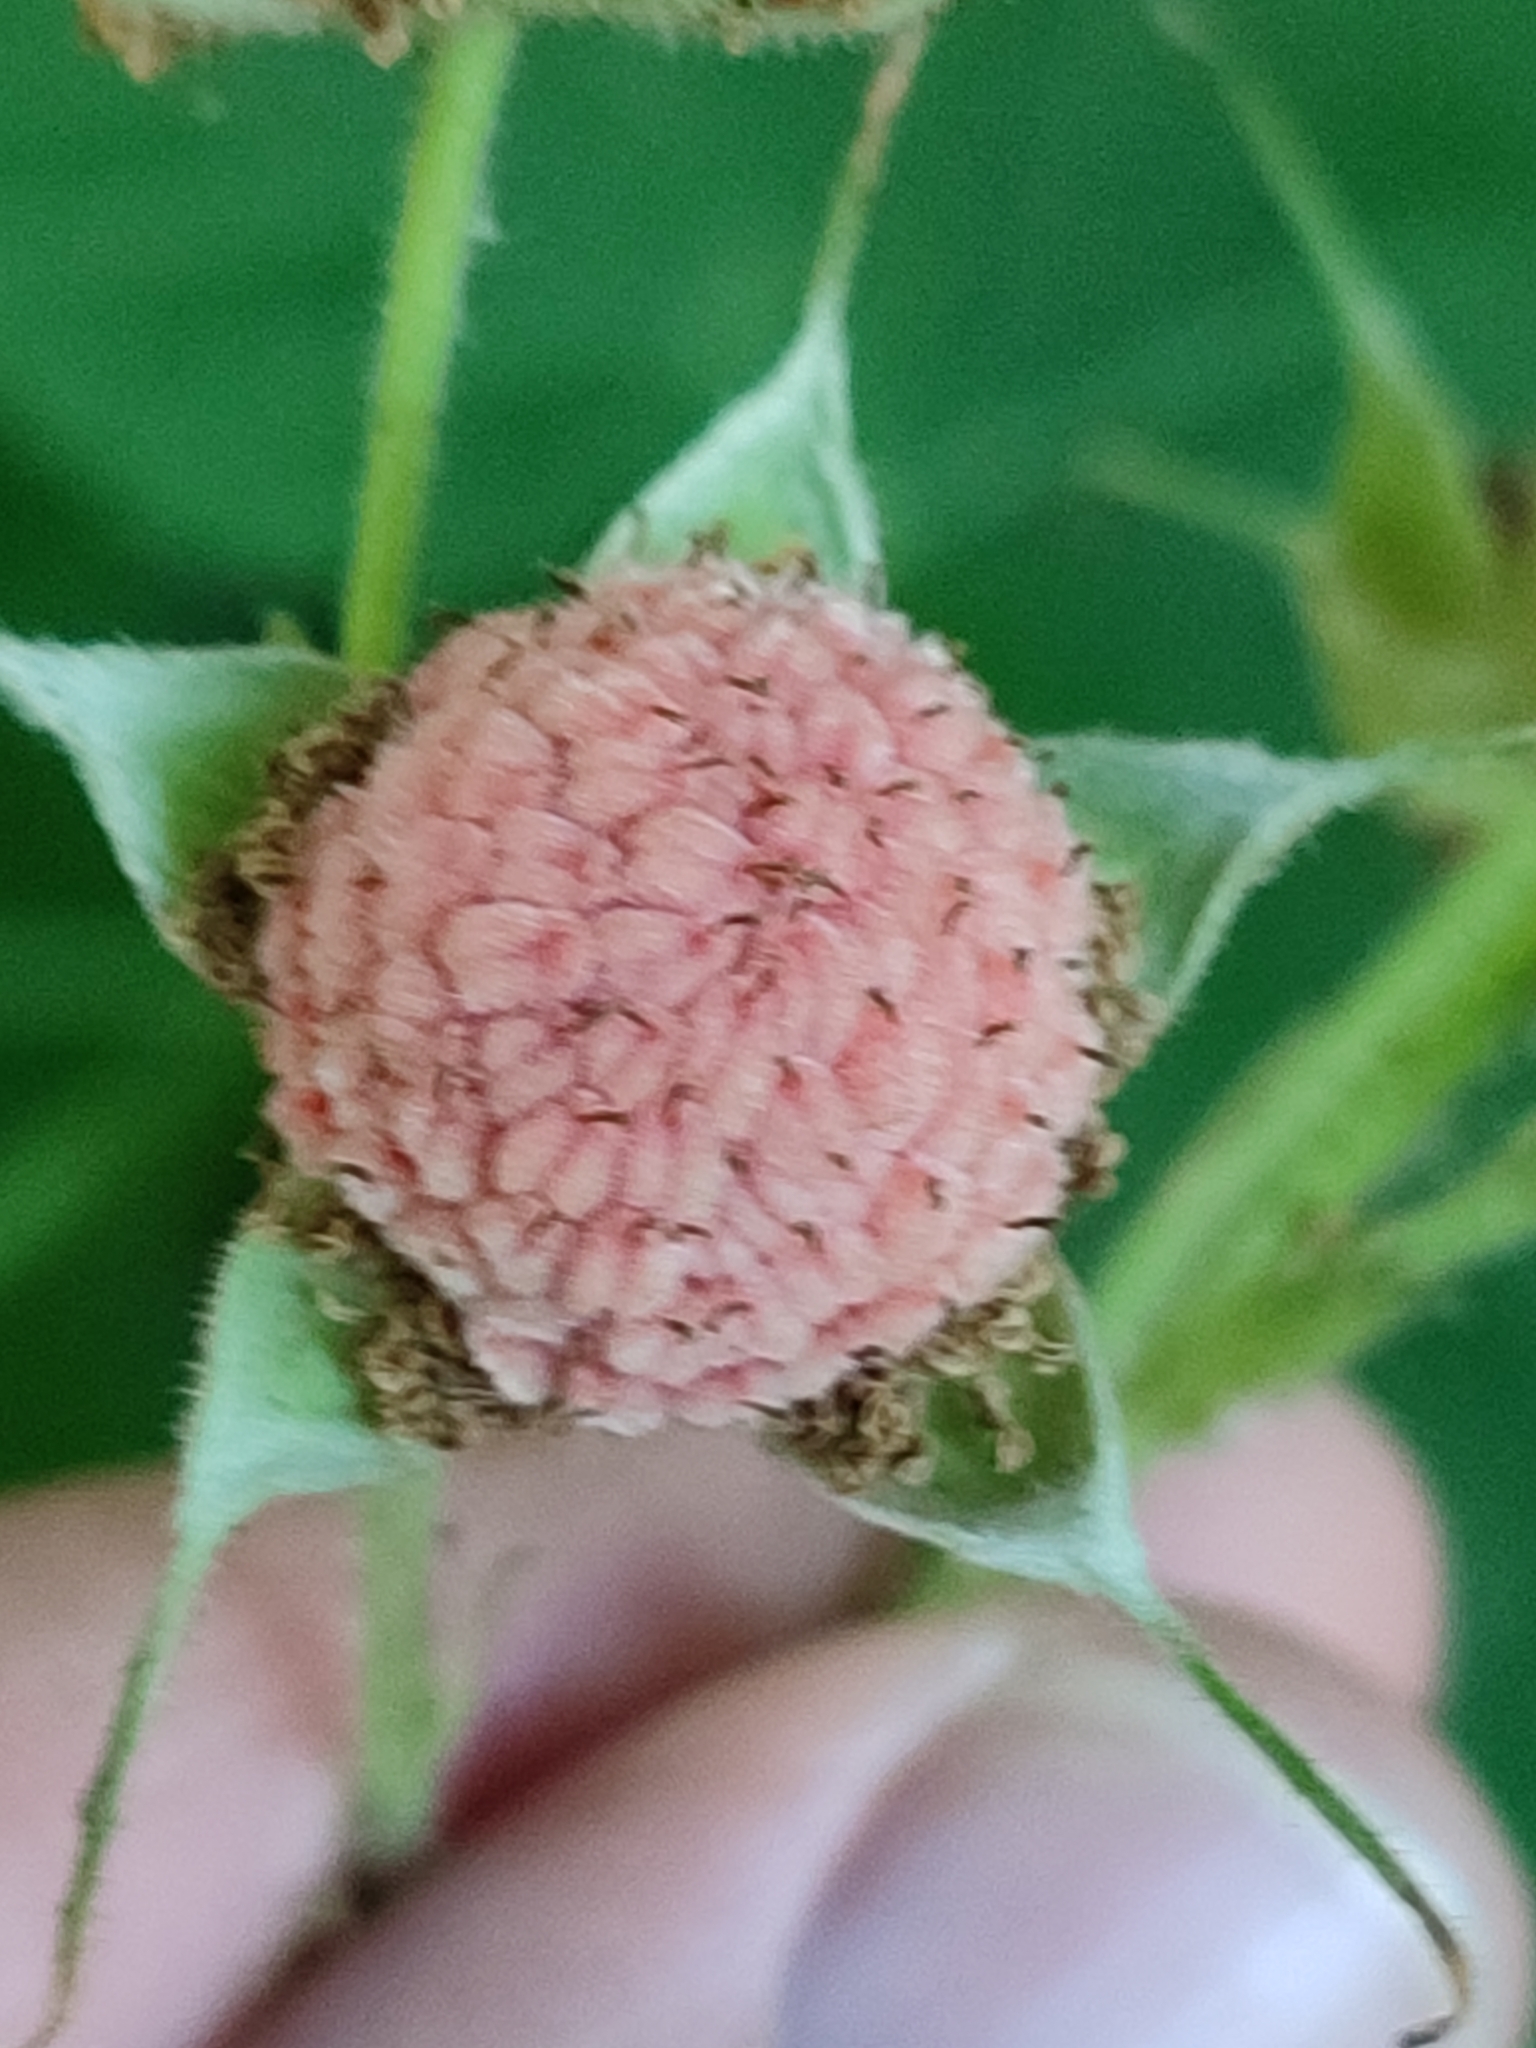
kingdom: Plantae
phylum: Tracheophyta
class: Magnoliopsida
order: Rosales
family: Rosaceae
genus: Rubus
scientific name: Rubus parviflorus
